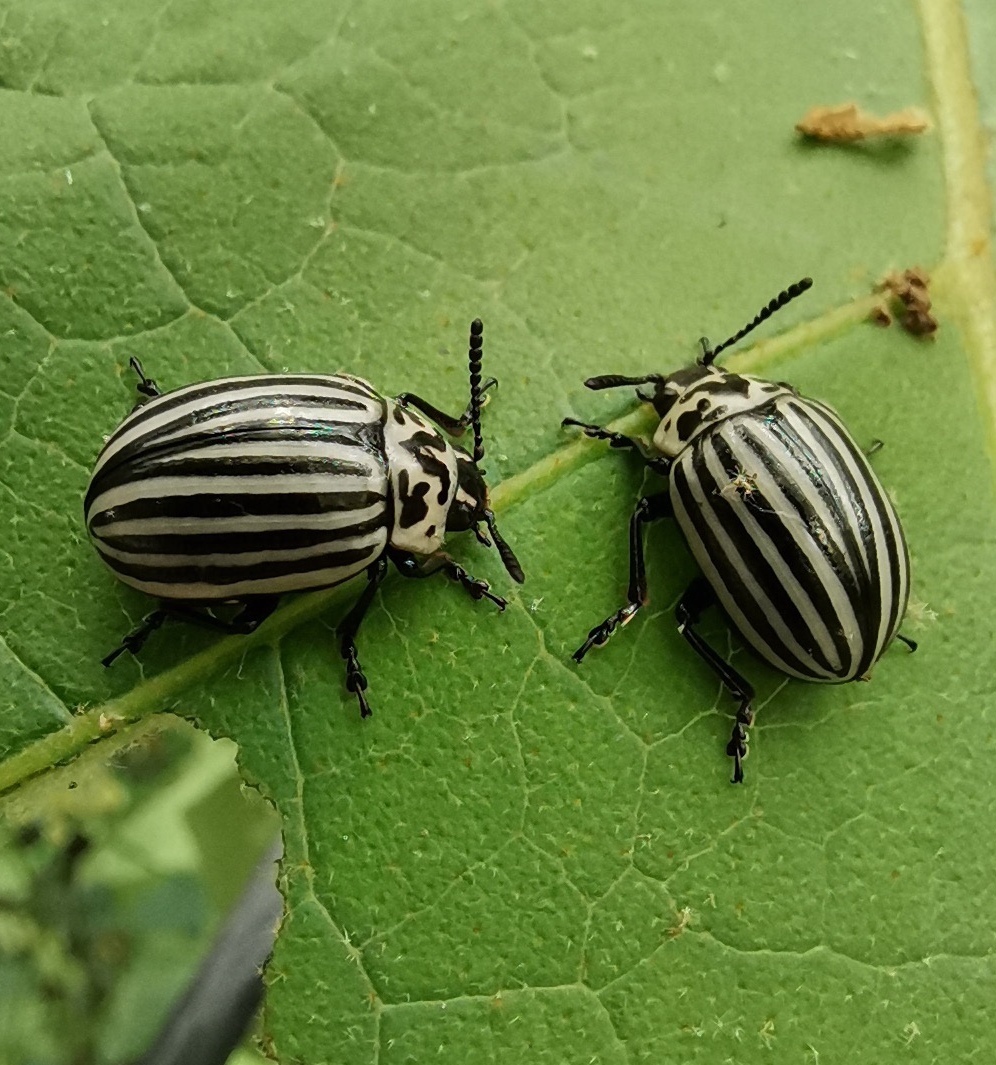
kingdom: Animalia
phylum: Arthropoda
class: Insecta
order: Coleoptera
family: Chrysomelidae
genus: Leptinotarsa
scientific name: Leptinotarsa
